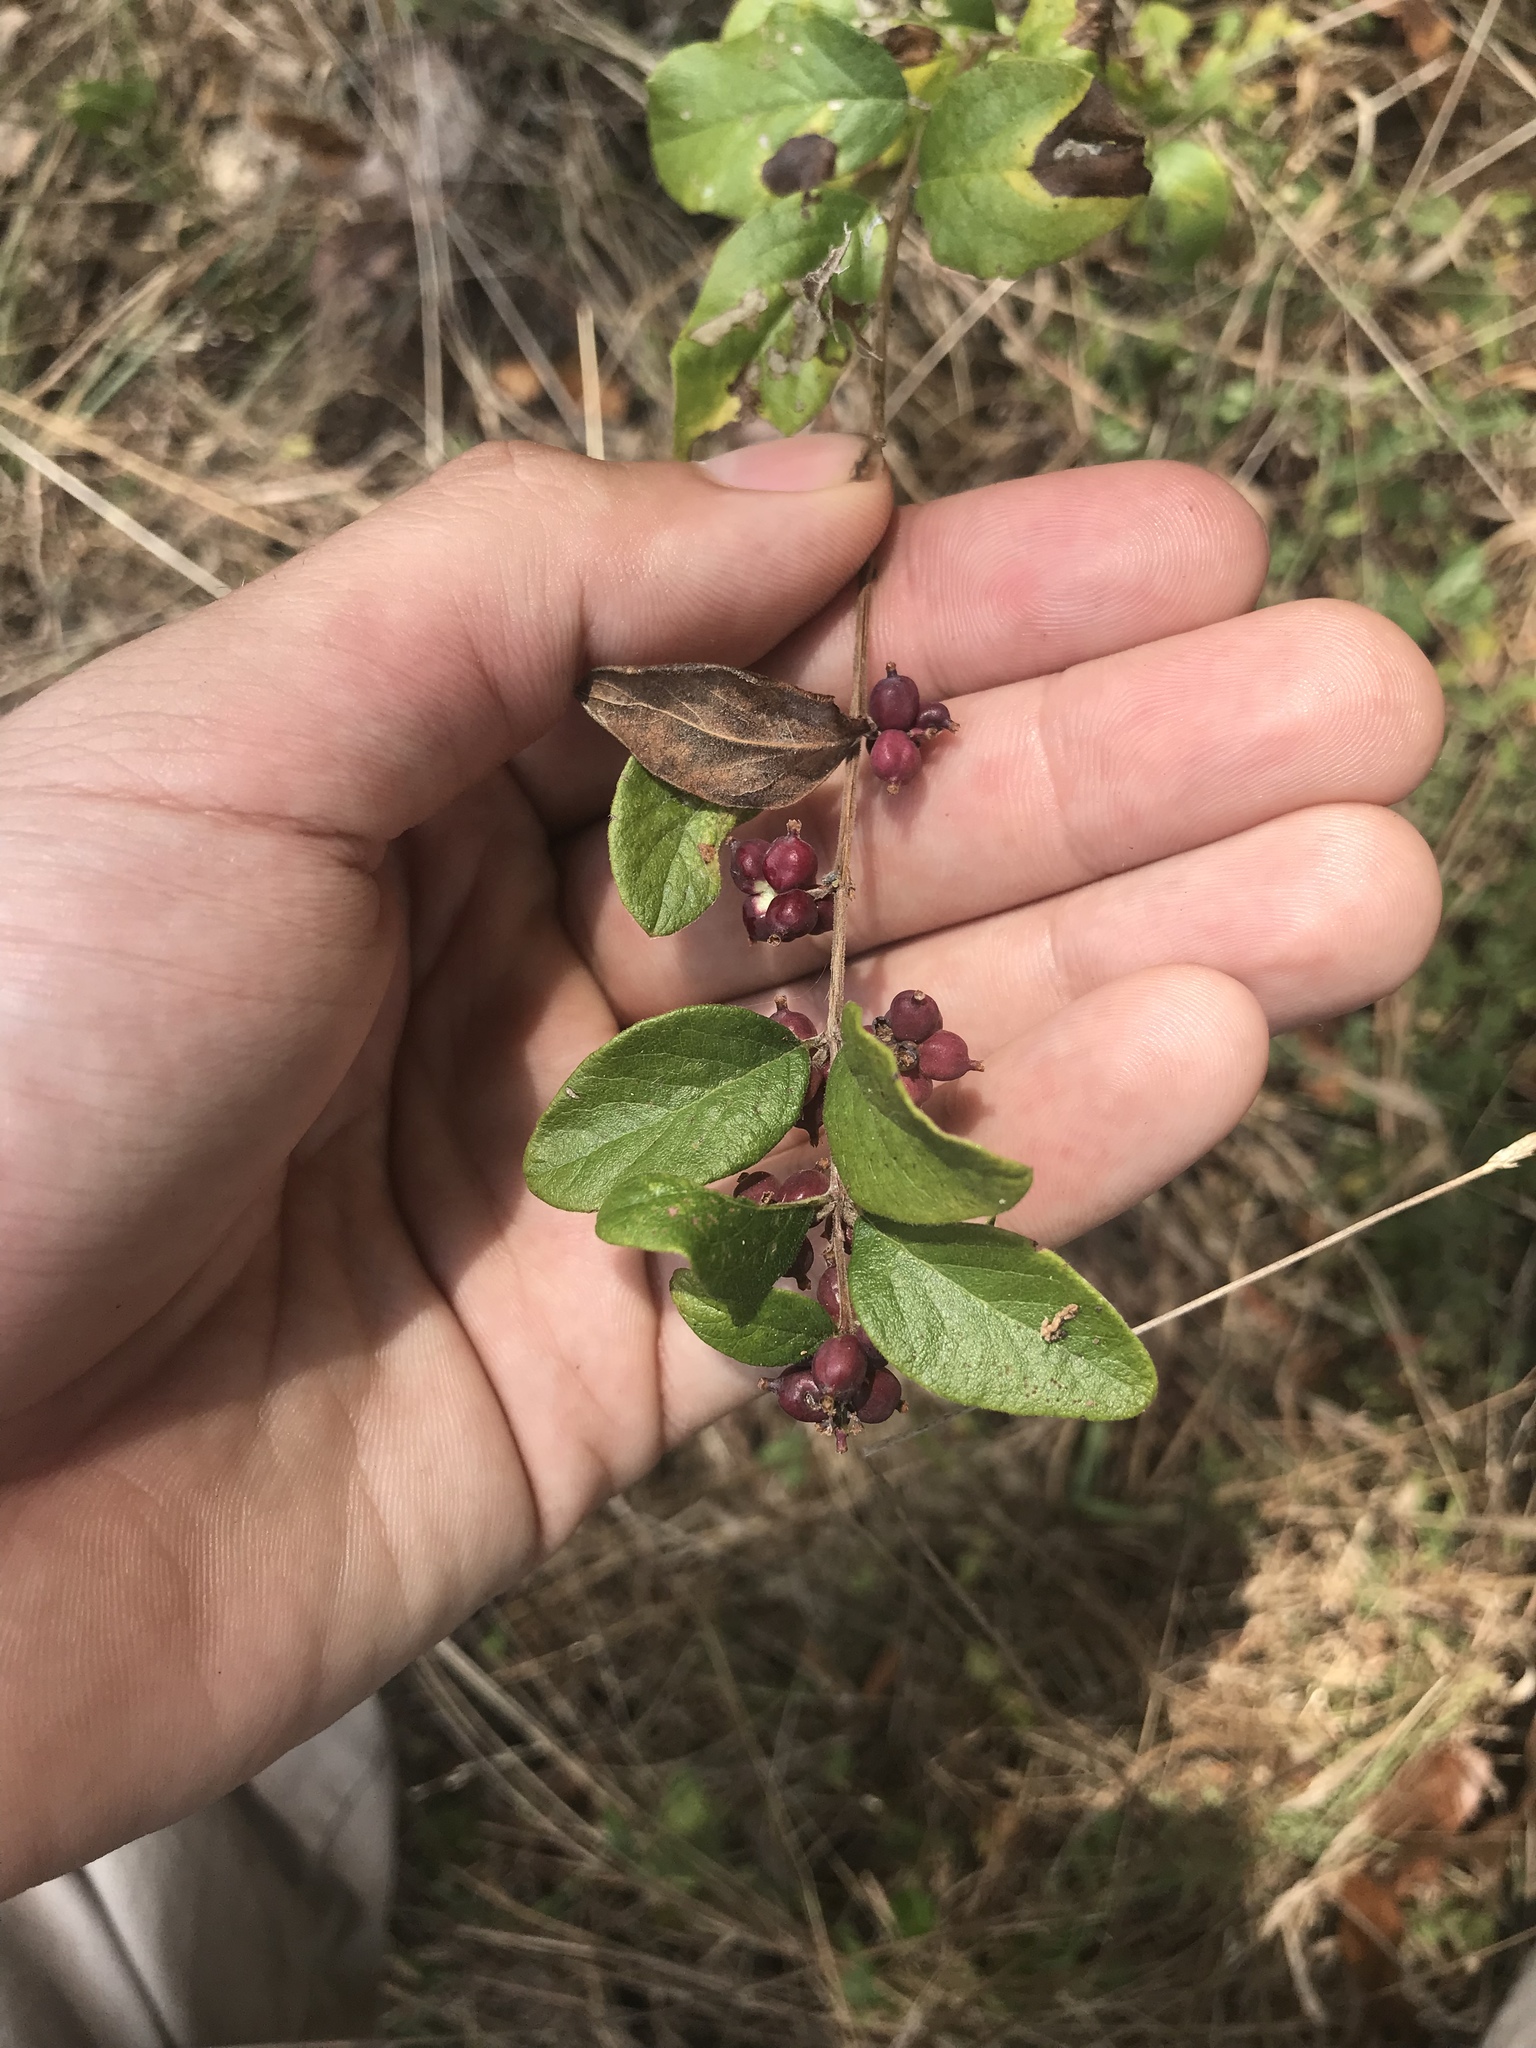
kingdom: Plantae
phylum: Tracheophyta
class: Magnoliopsida
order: Dipsacales
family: Caprifoliaceae
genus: Symphoricarpos
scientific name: Symphoricarpos orbiculatus
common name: Coralberry
